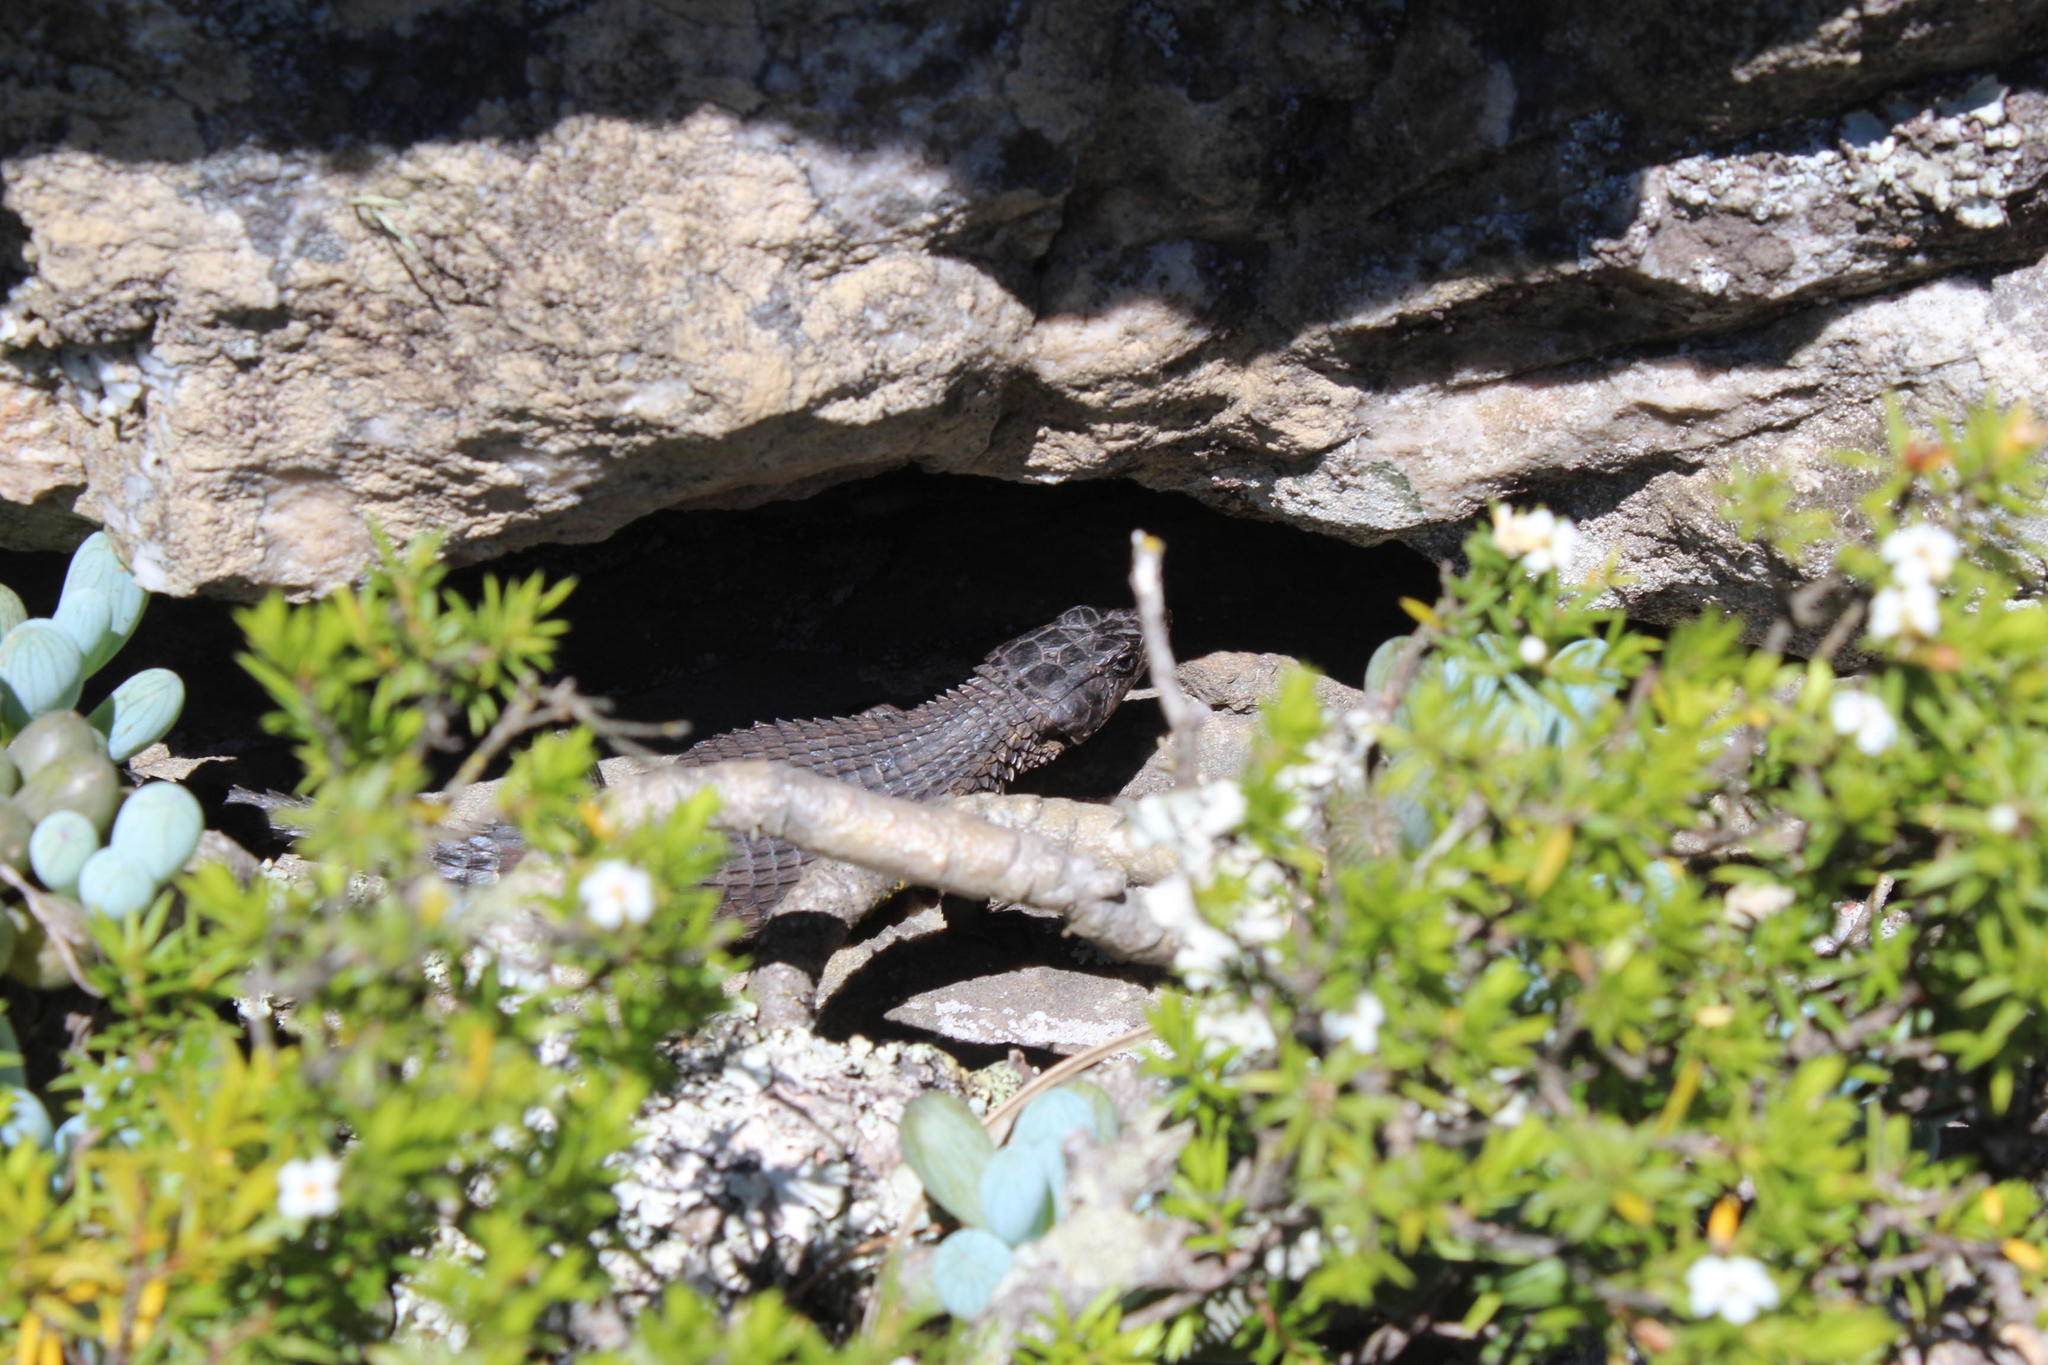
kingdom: Animalia
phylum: Chordata
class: Squamata
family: Cordylidae
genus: Cordylus
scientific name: Cordylus niger
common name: Black girdled lizard
